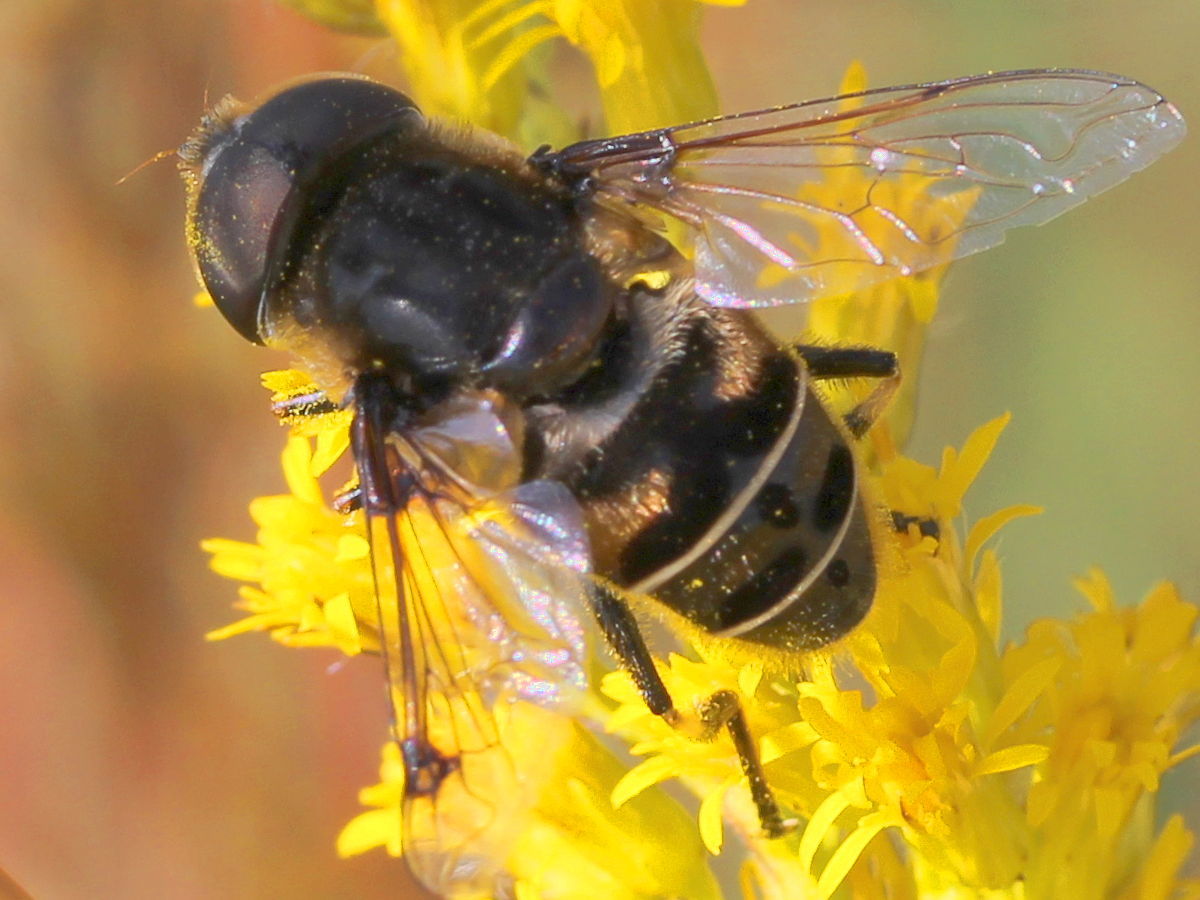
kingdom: Animalia
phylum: Arthropoda
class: Insecta
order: Diptera
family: Syrphidae
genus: Eristalis
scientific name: Eristalis dimidiata
